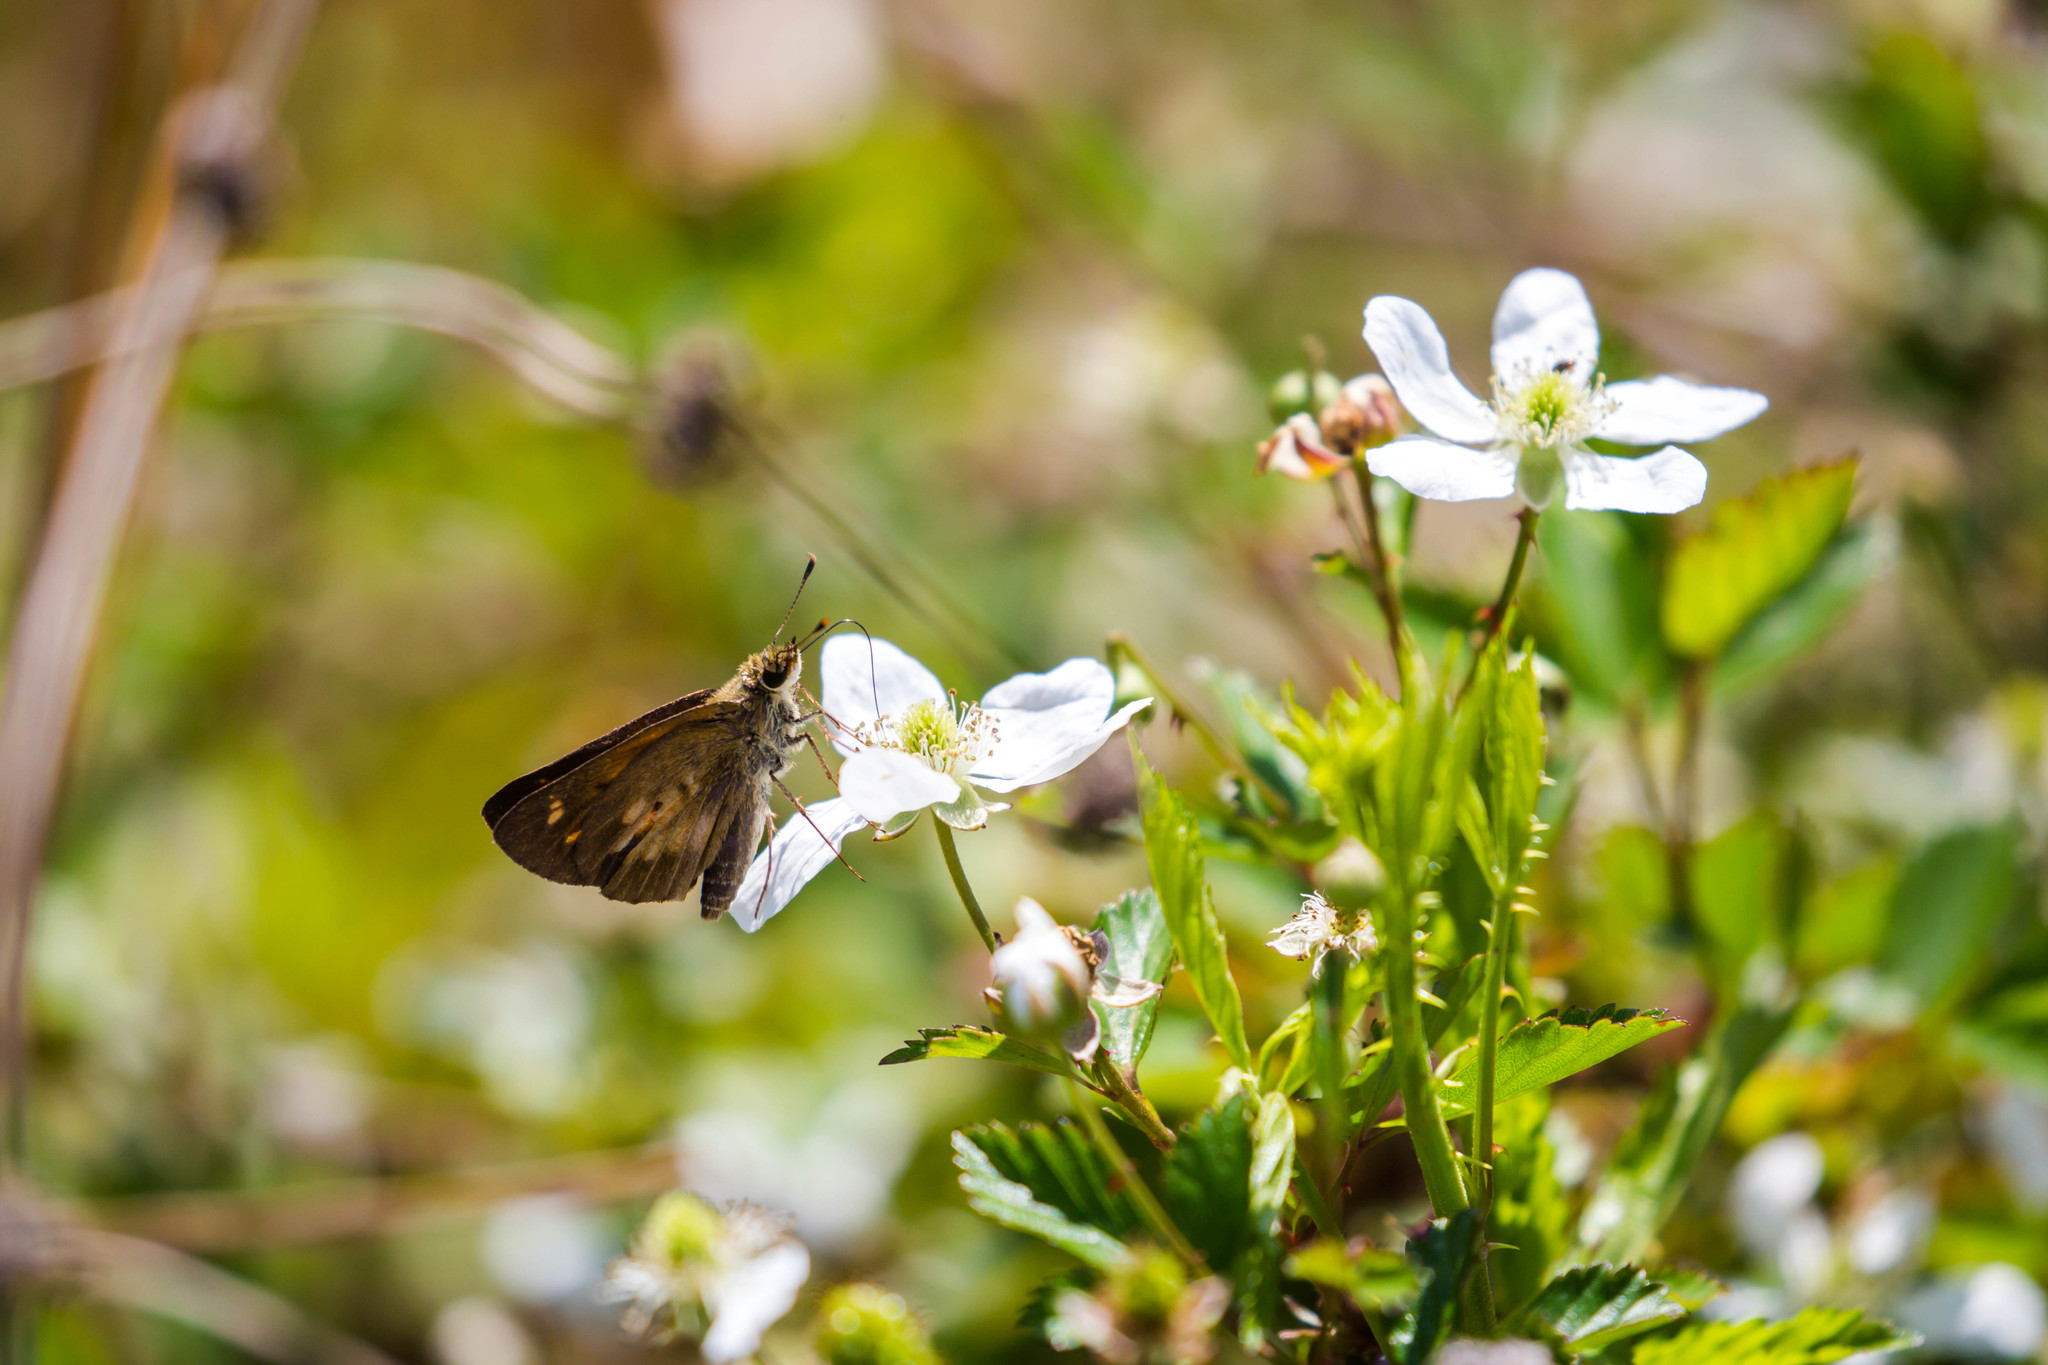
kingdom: Animalia
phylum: Arthropoda
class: Insecta
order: Lepidoptera
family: Hesperiidae
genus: Poanes
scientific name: Poanes viator
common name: Broad-winged skipper
